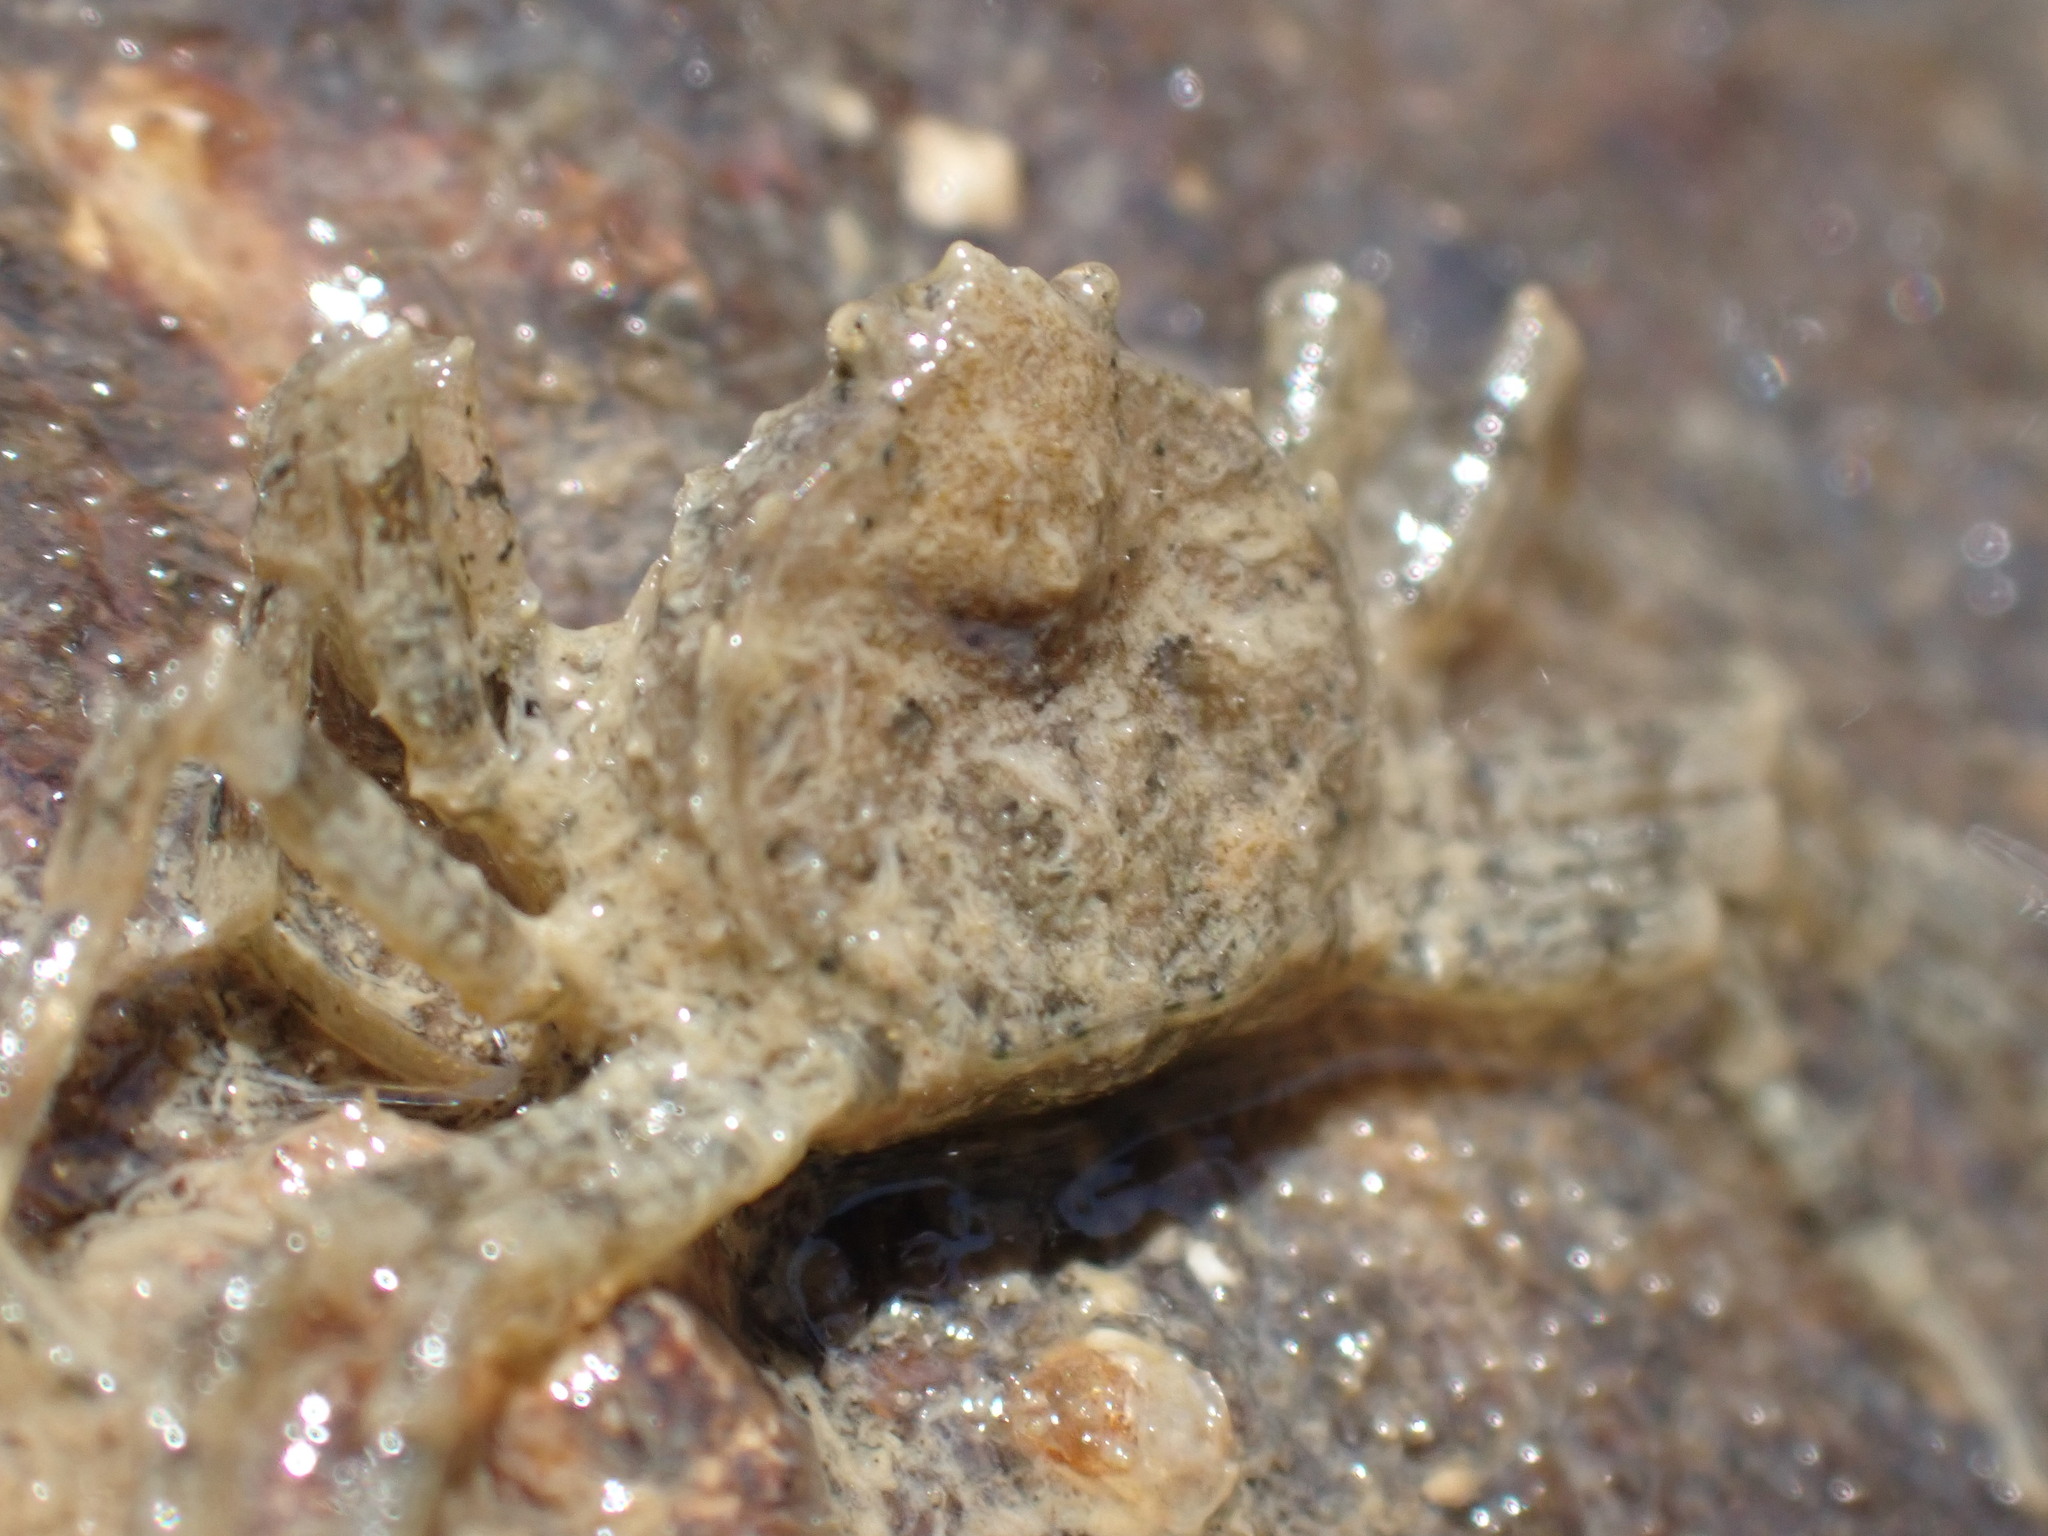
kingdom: Animalia
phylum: Arthropoda
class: Malacostraca
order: Decapoda
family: Hymenosomatidae
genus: Halicarcinus
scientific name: Halicarcinus quoyi
